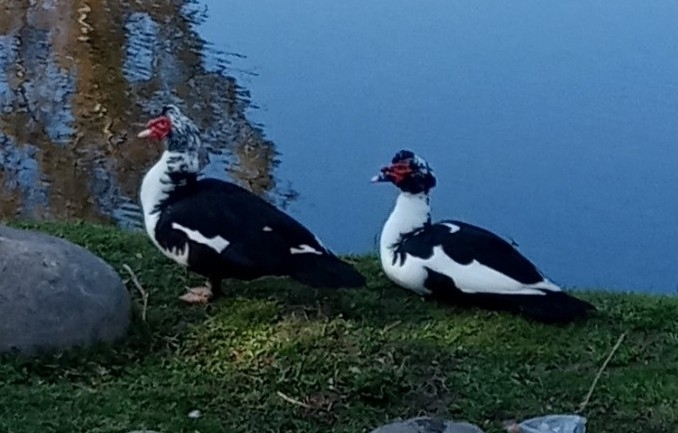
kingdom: Animalia
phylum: Chordata
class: Aves
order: Anseriformes
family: Anatidae
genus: Cairina
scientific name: Cairina moschata
